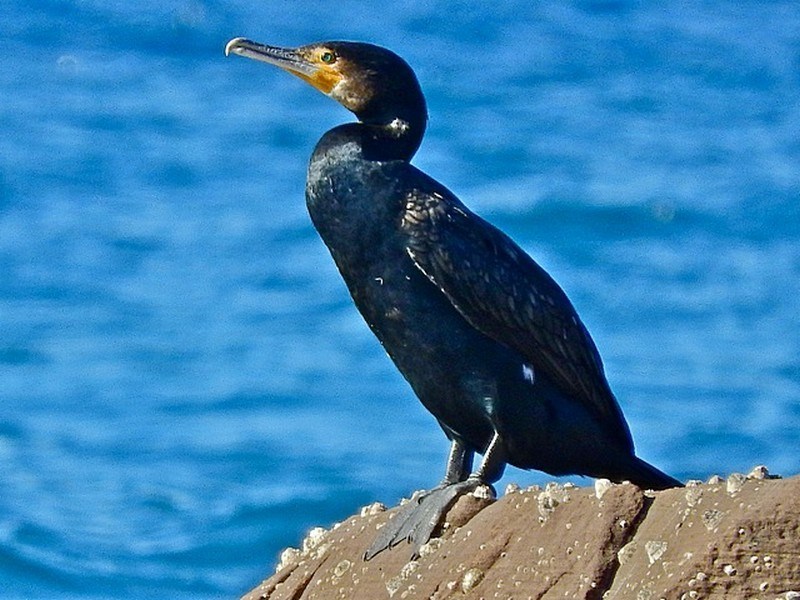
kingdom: Animalia
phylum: Chordata
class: Aves
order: Suliformes
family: Phalacrocoracidae
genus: Phalacrocorax
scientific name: Phalacrocorax carbo
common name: Great cormorant
